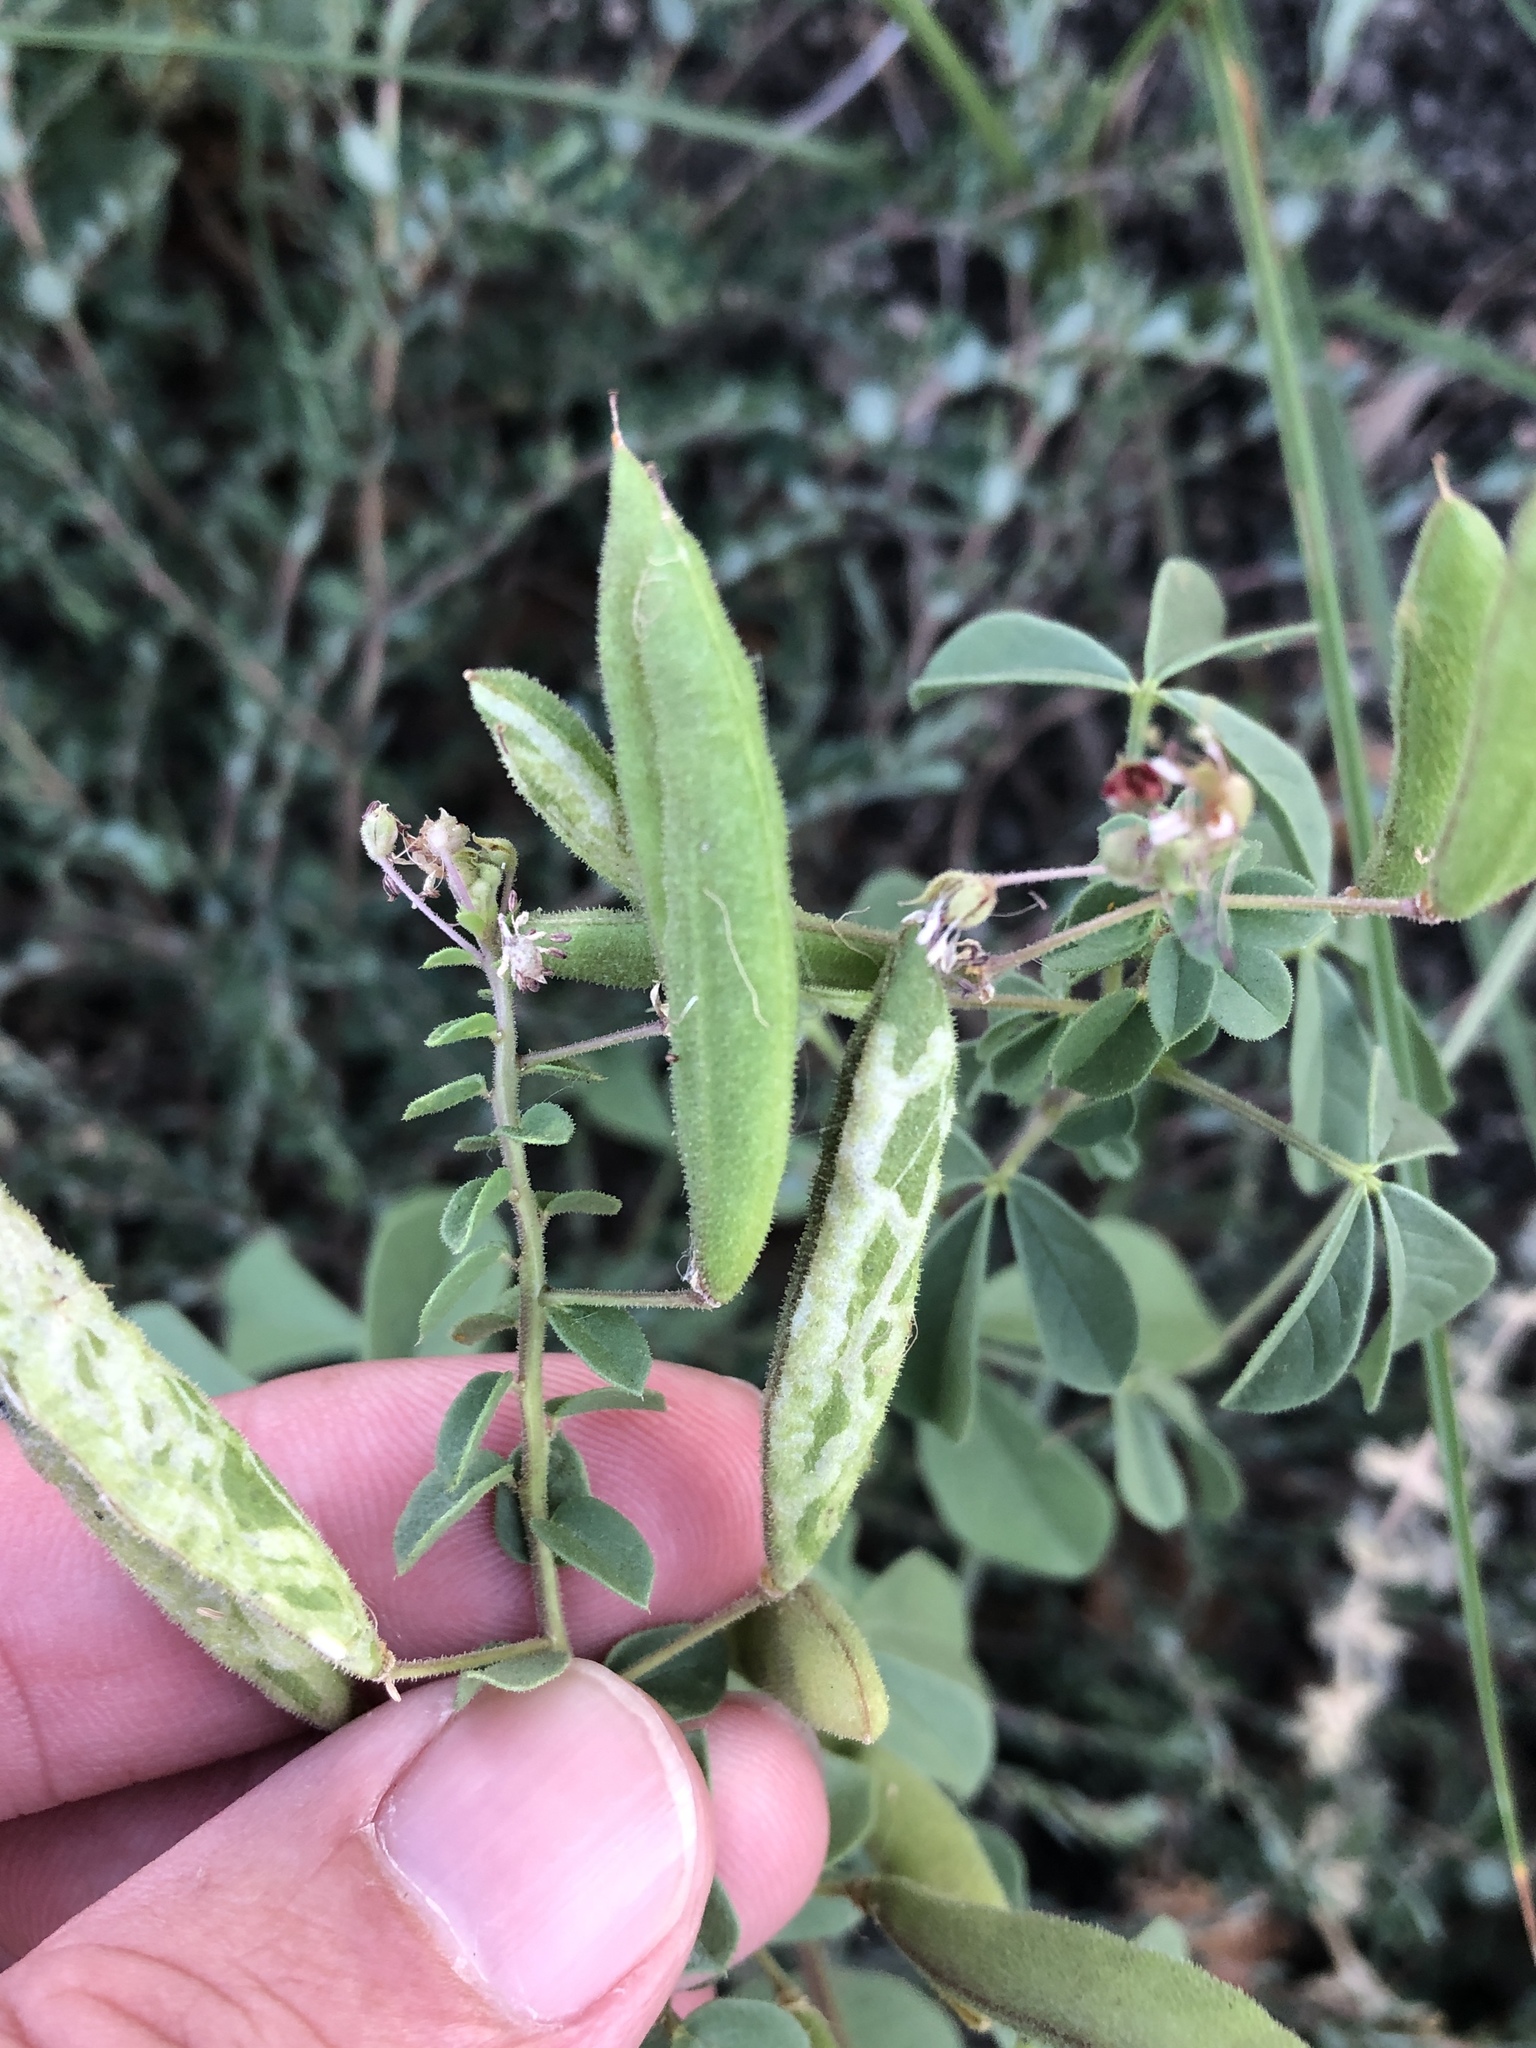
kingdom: Plantae
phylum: Tracheophyta
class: Magnoliopsida
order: Brassicales
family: Cleomaceae
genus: Polanisia
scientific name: Polanisia dodecandra
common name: Clammyweed
